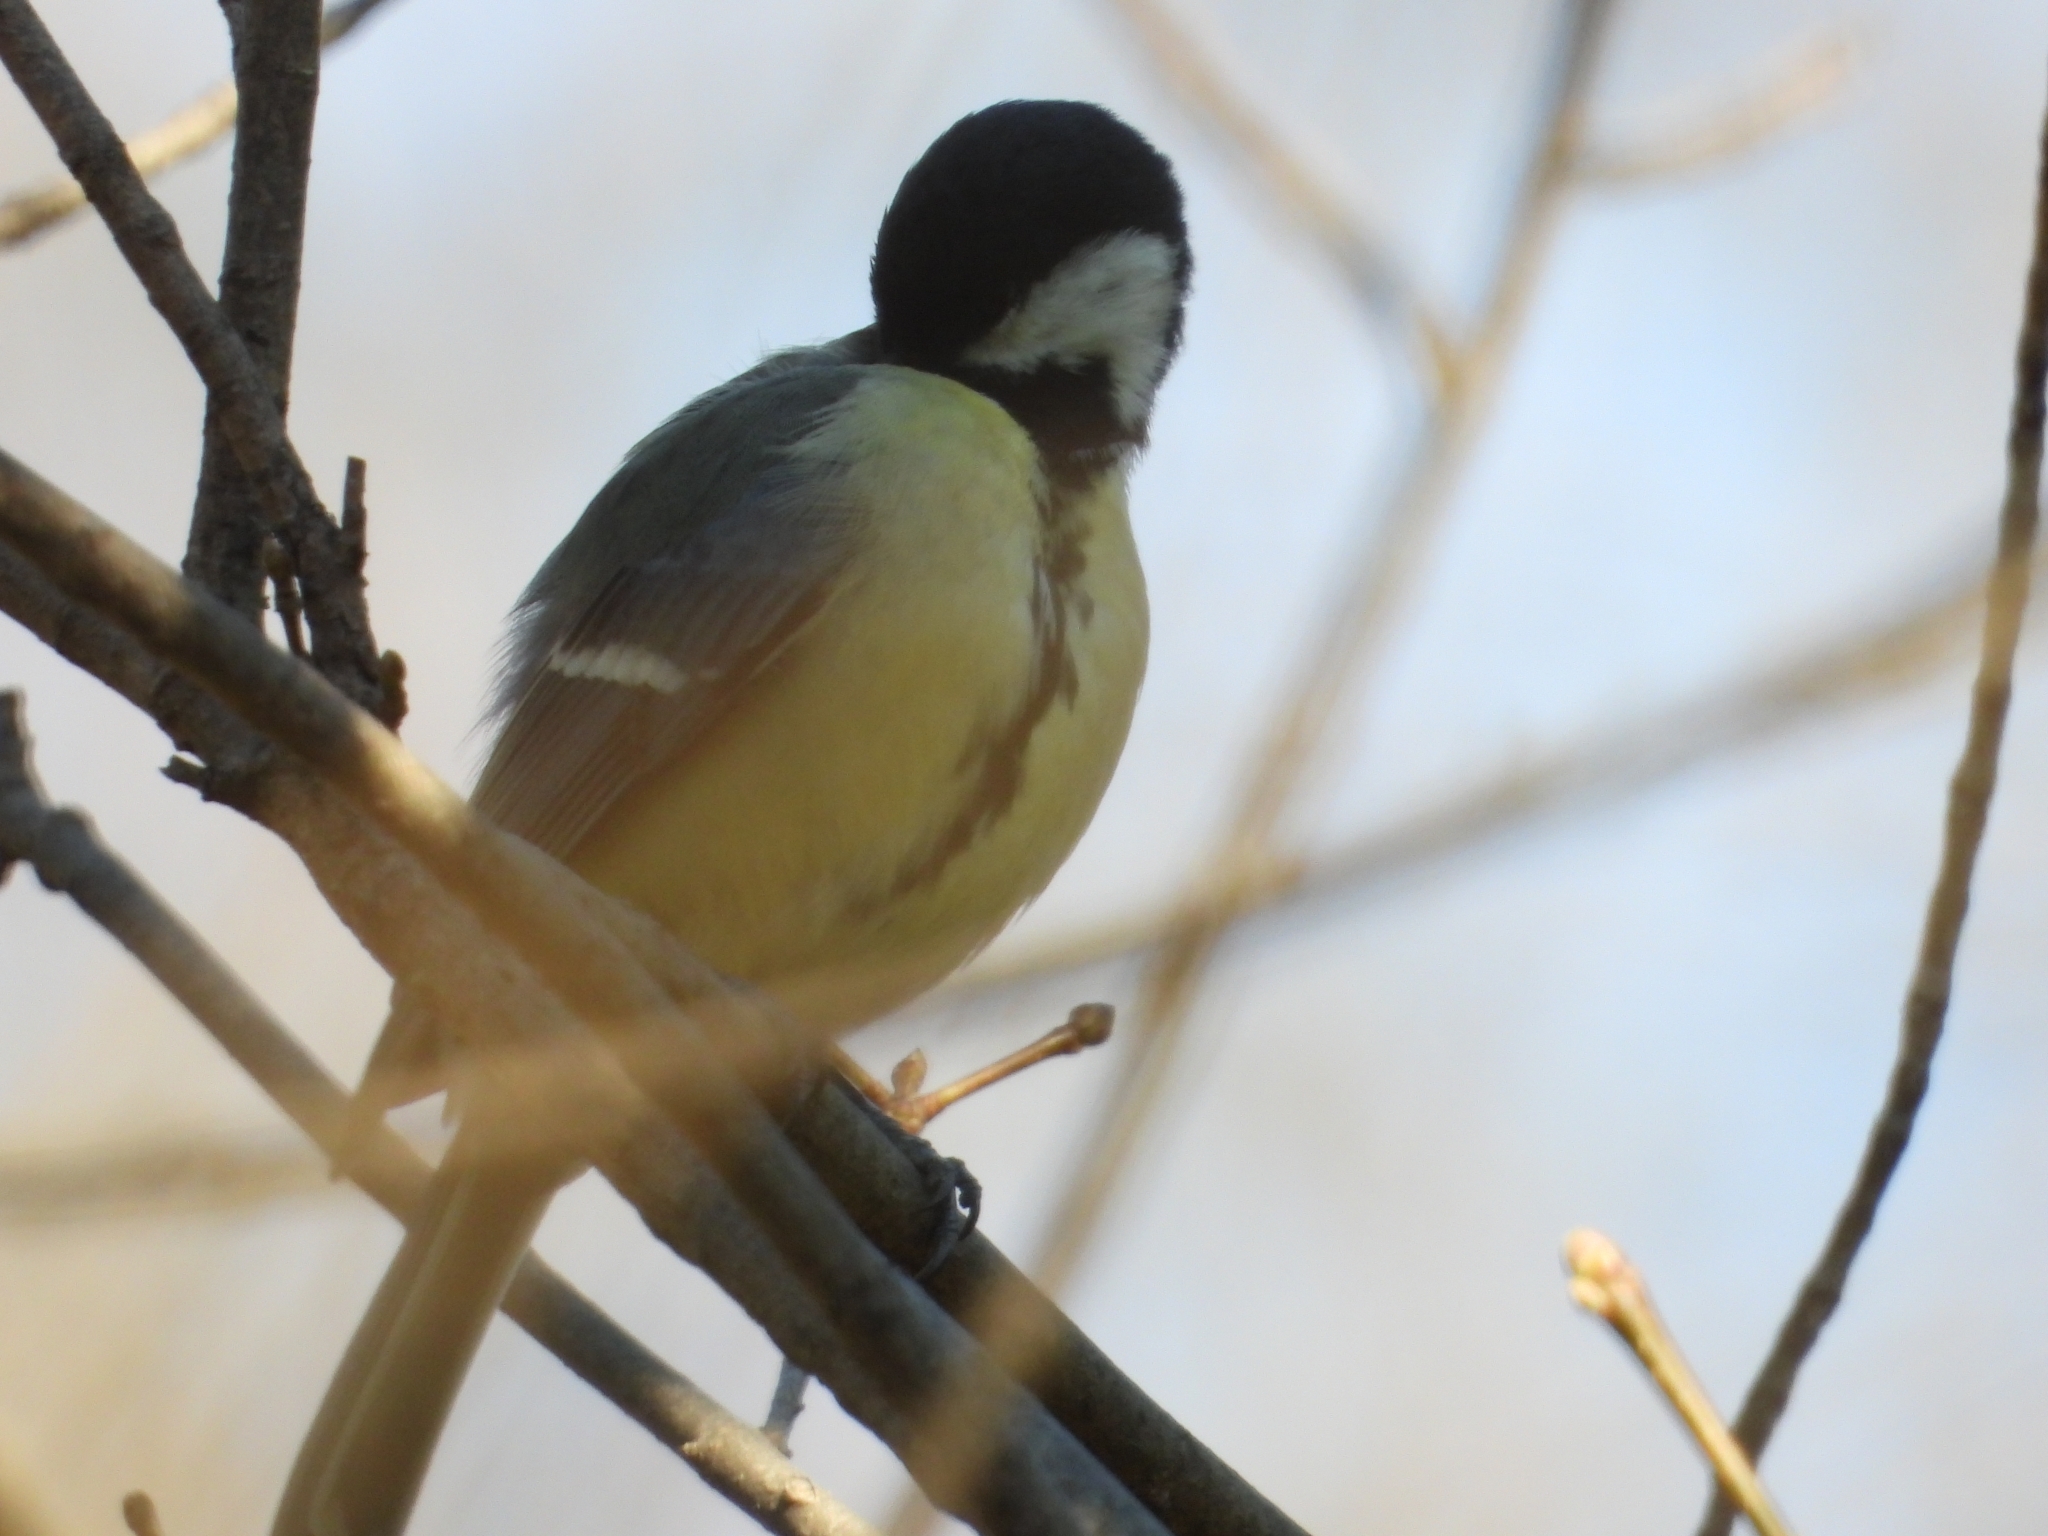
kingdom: Animalia
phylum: Chordata
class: Aves
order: Passeriformes
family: Paridae
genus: Parus
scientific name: Parus major
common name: Great tit
